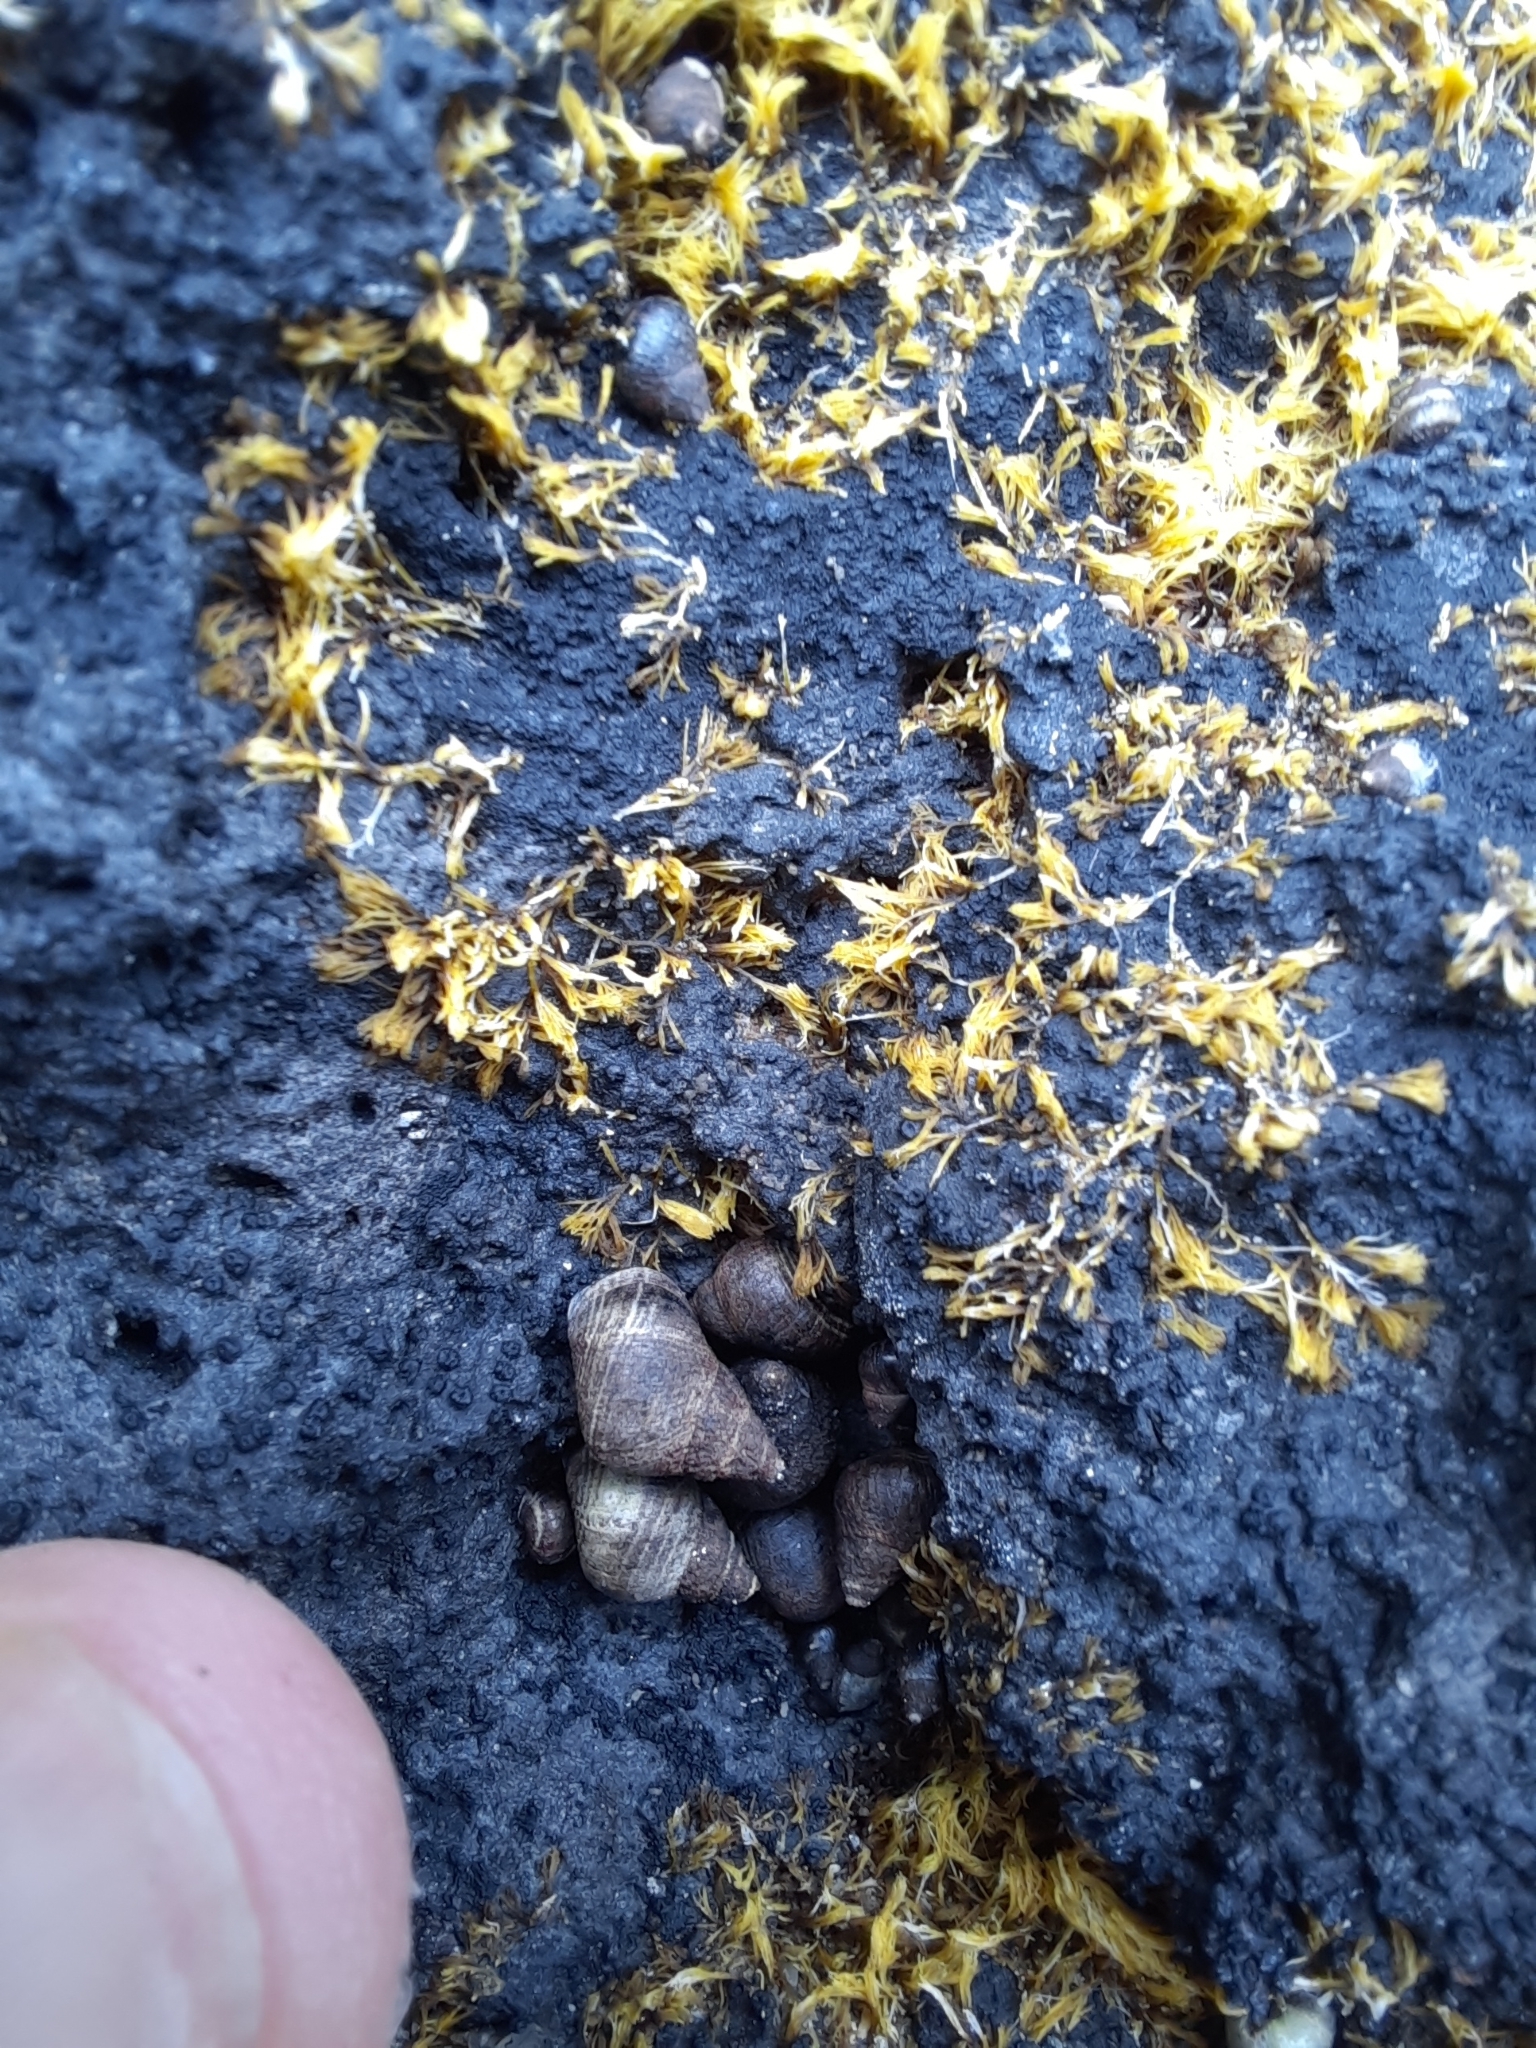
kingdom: Animalia
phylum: Mollusca
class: Gastropoda
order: Littorinimorpha
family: Littorinidae
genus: Austrolittorina
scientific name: Austrolittorina cincta
